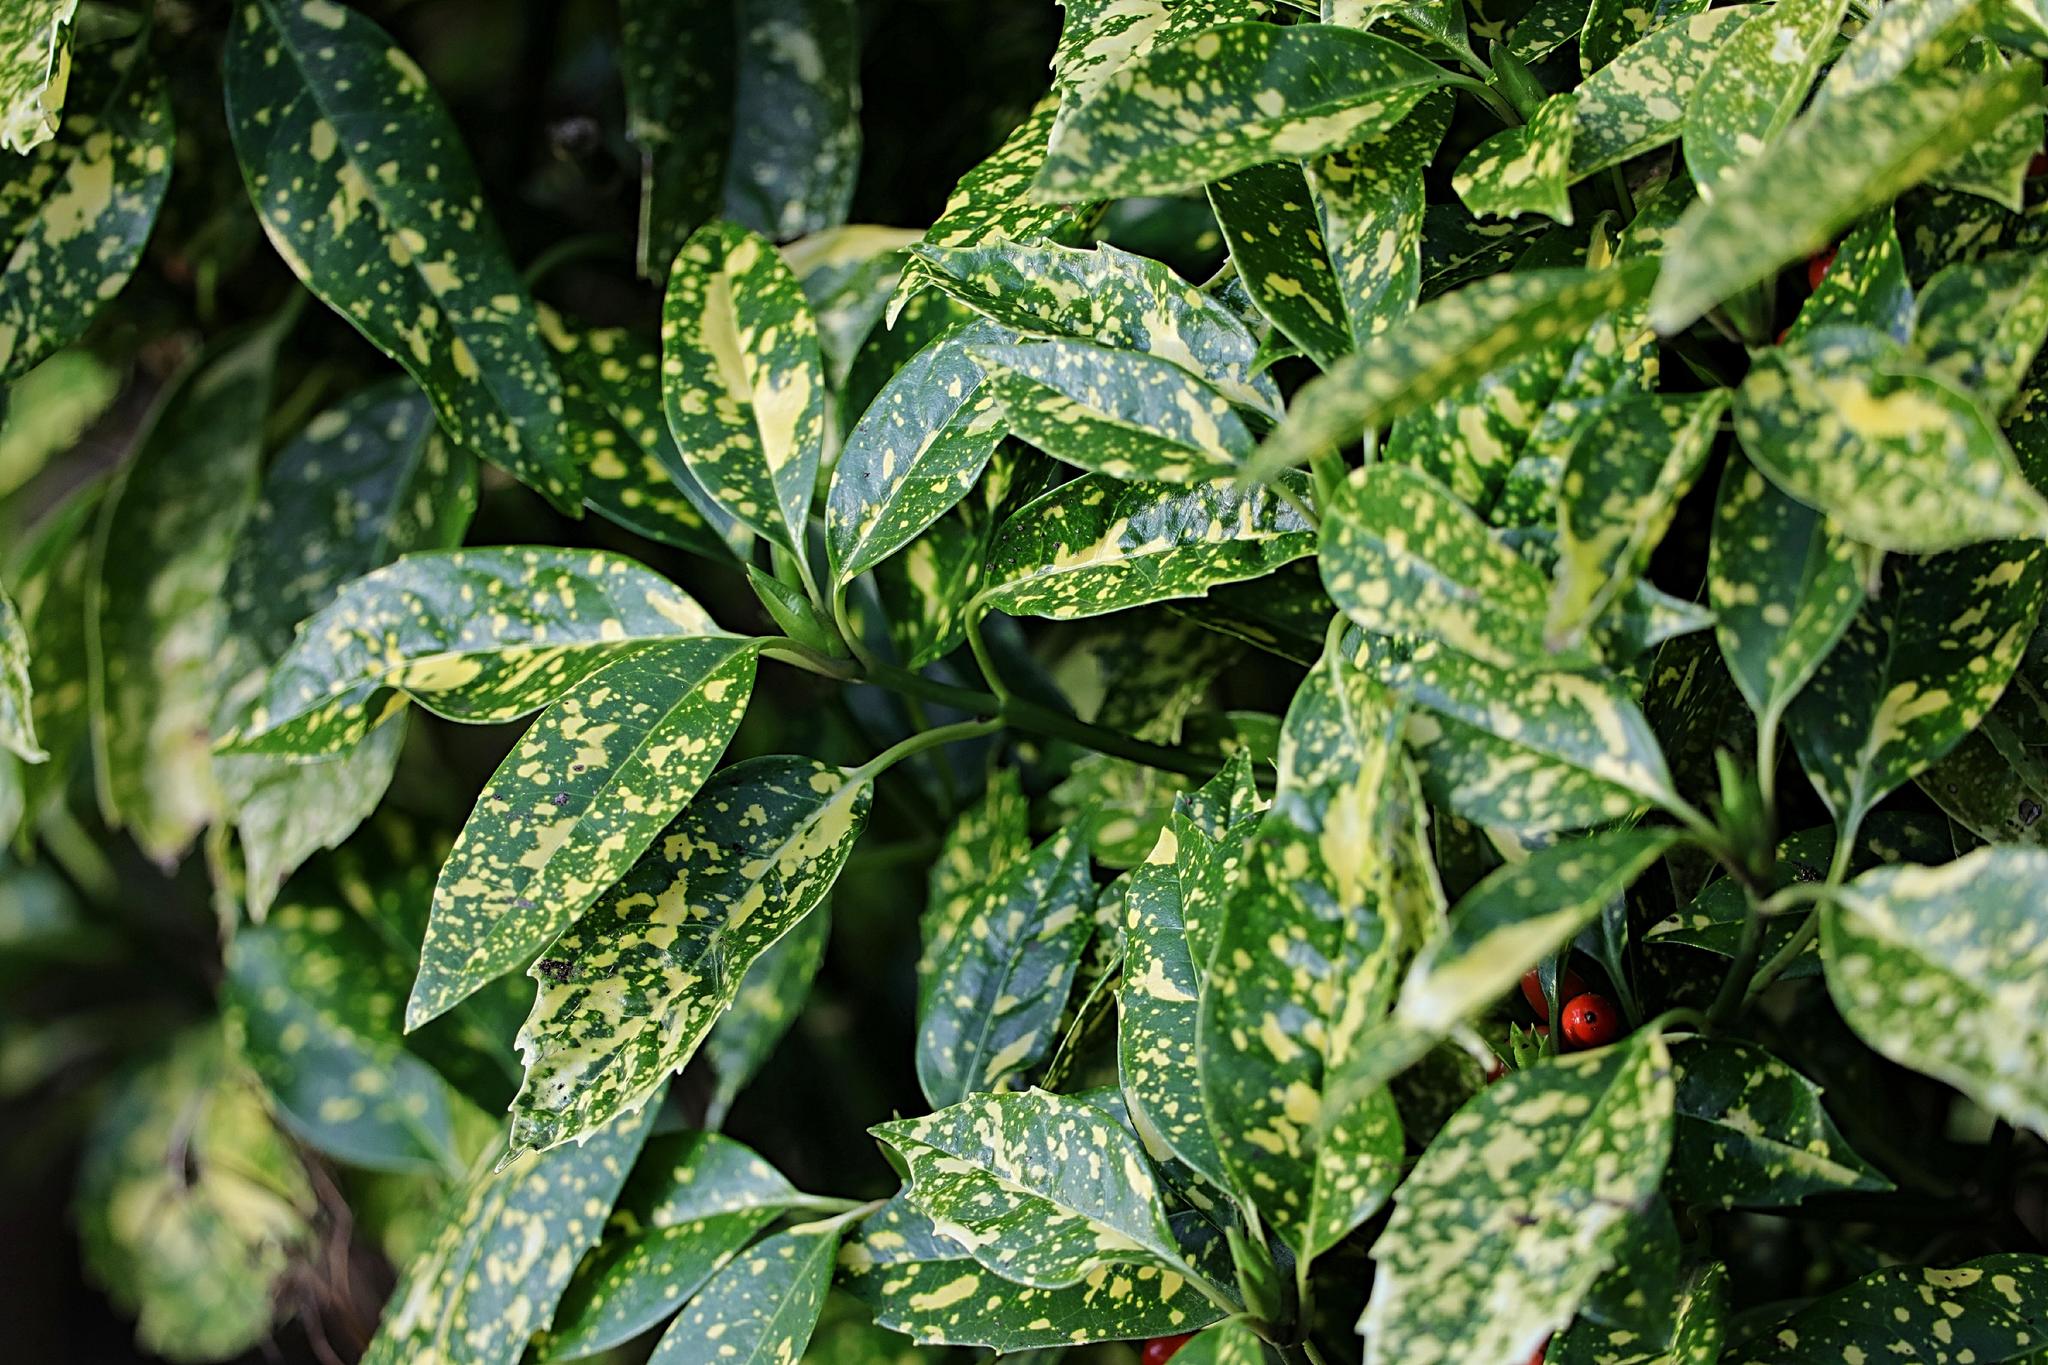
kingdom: Plantae
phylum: Tracheophyta
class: Magnoliopsida
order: Garryales
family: Garryaceae
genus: Aucuba
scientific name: Aucuba japonica
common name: Spotted-laurel
